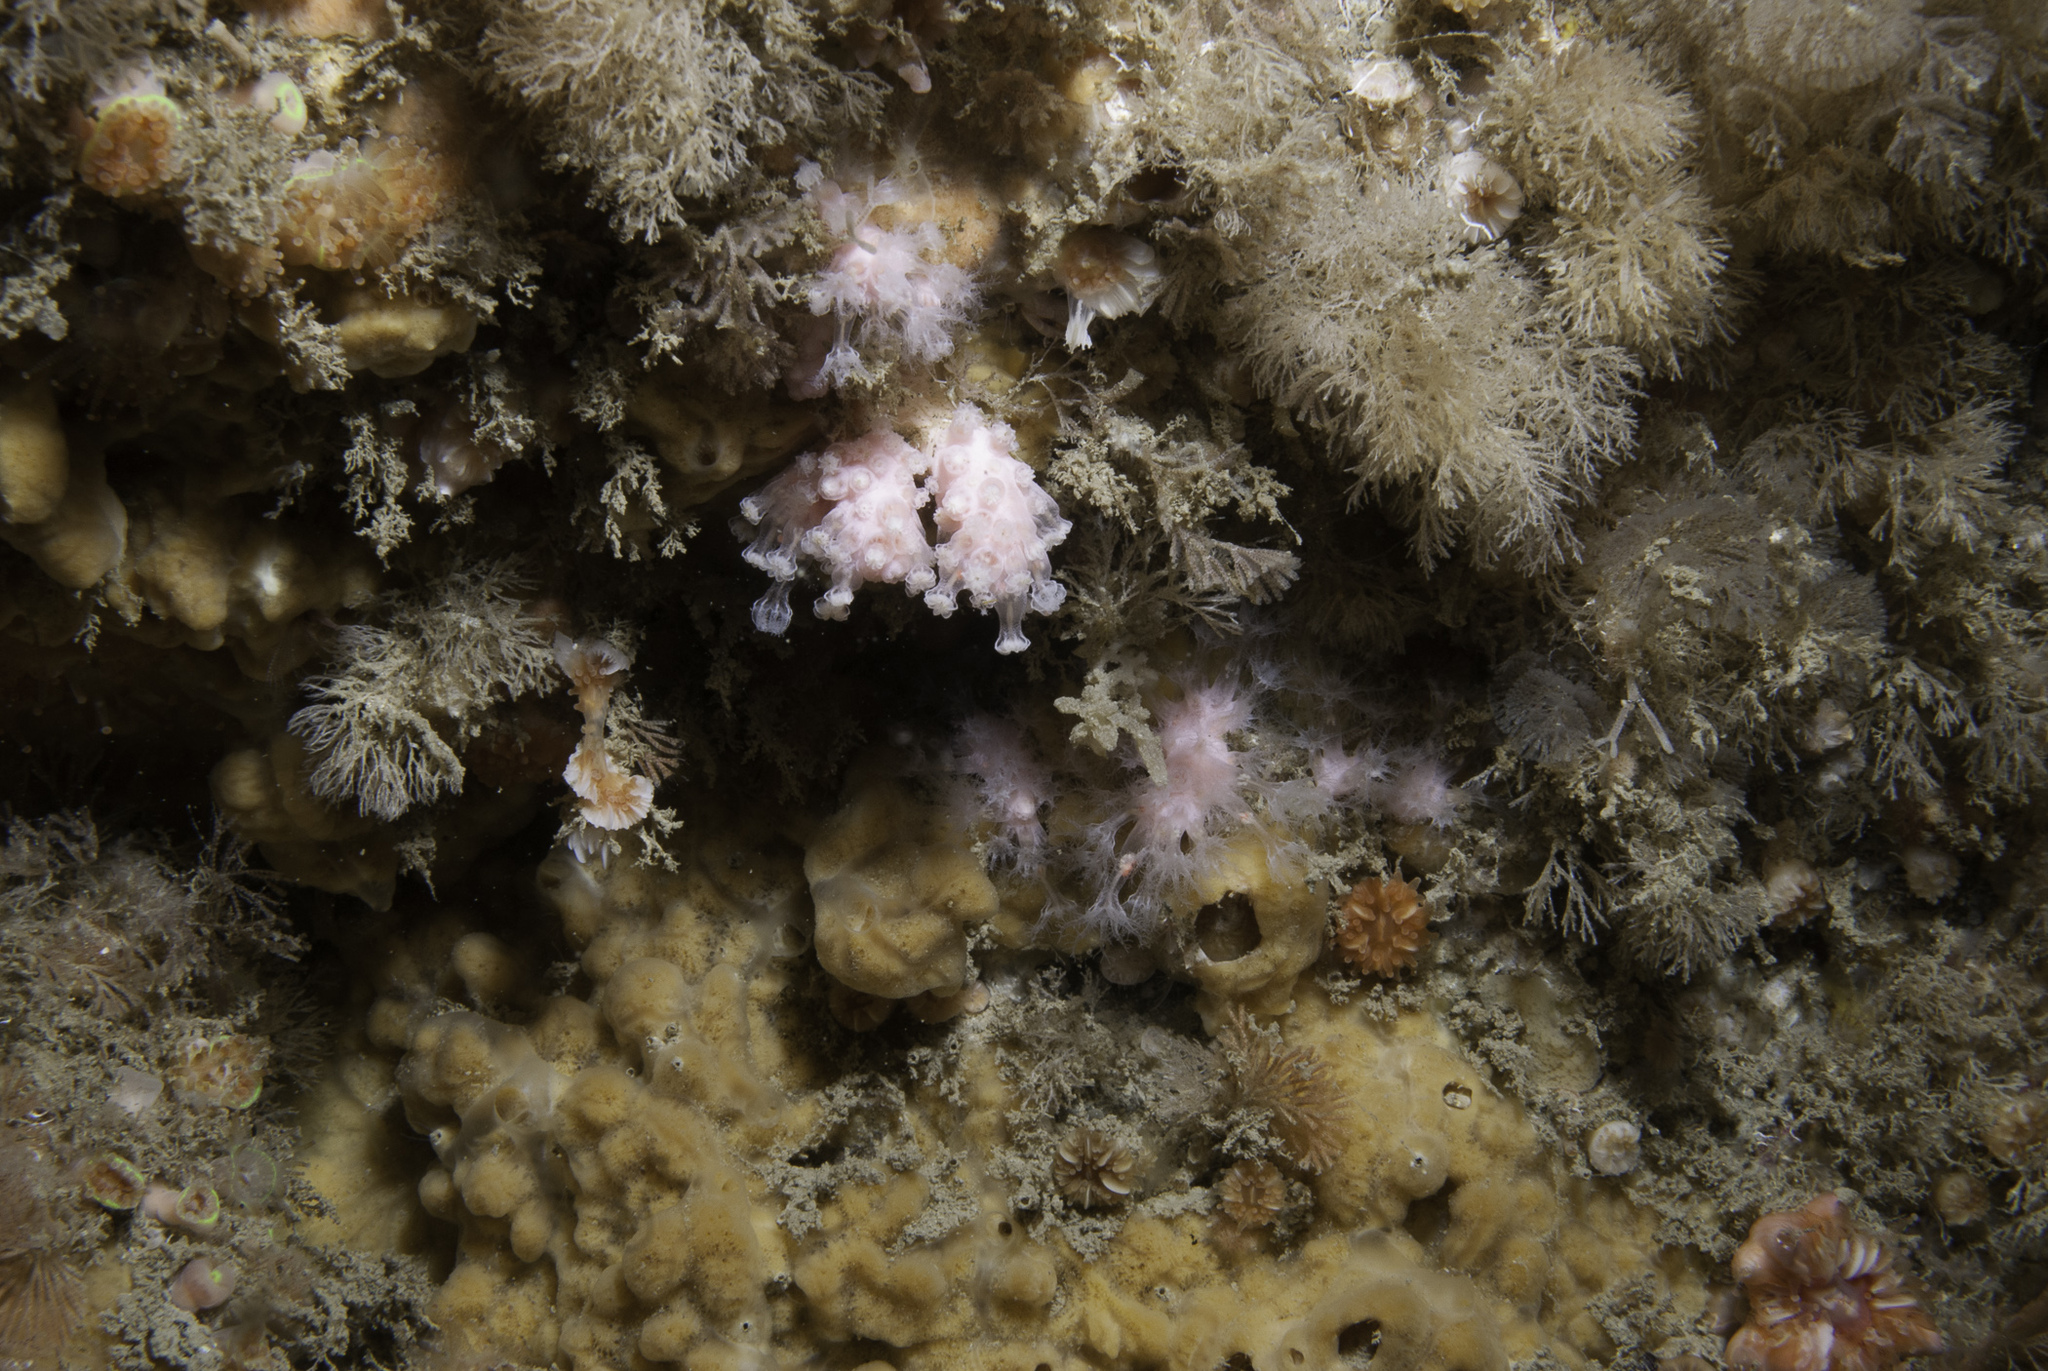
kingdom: Animalia
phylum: Cnidaria
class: Anthozoa
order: Malacalcyonacea
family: Alcyoniidae
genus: Alcyonium
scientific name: Alcyonium hibernicum
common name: Pink sea fingers
